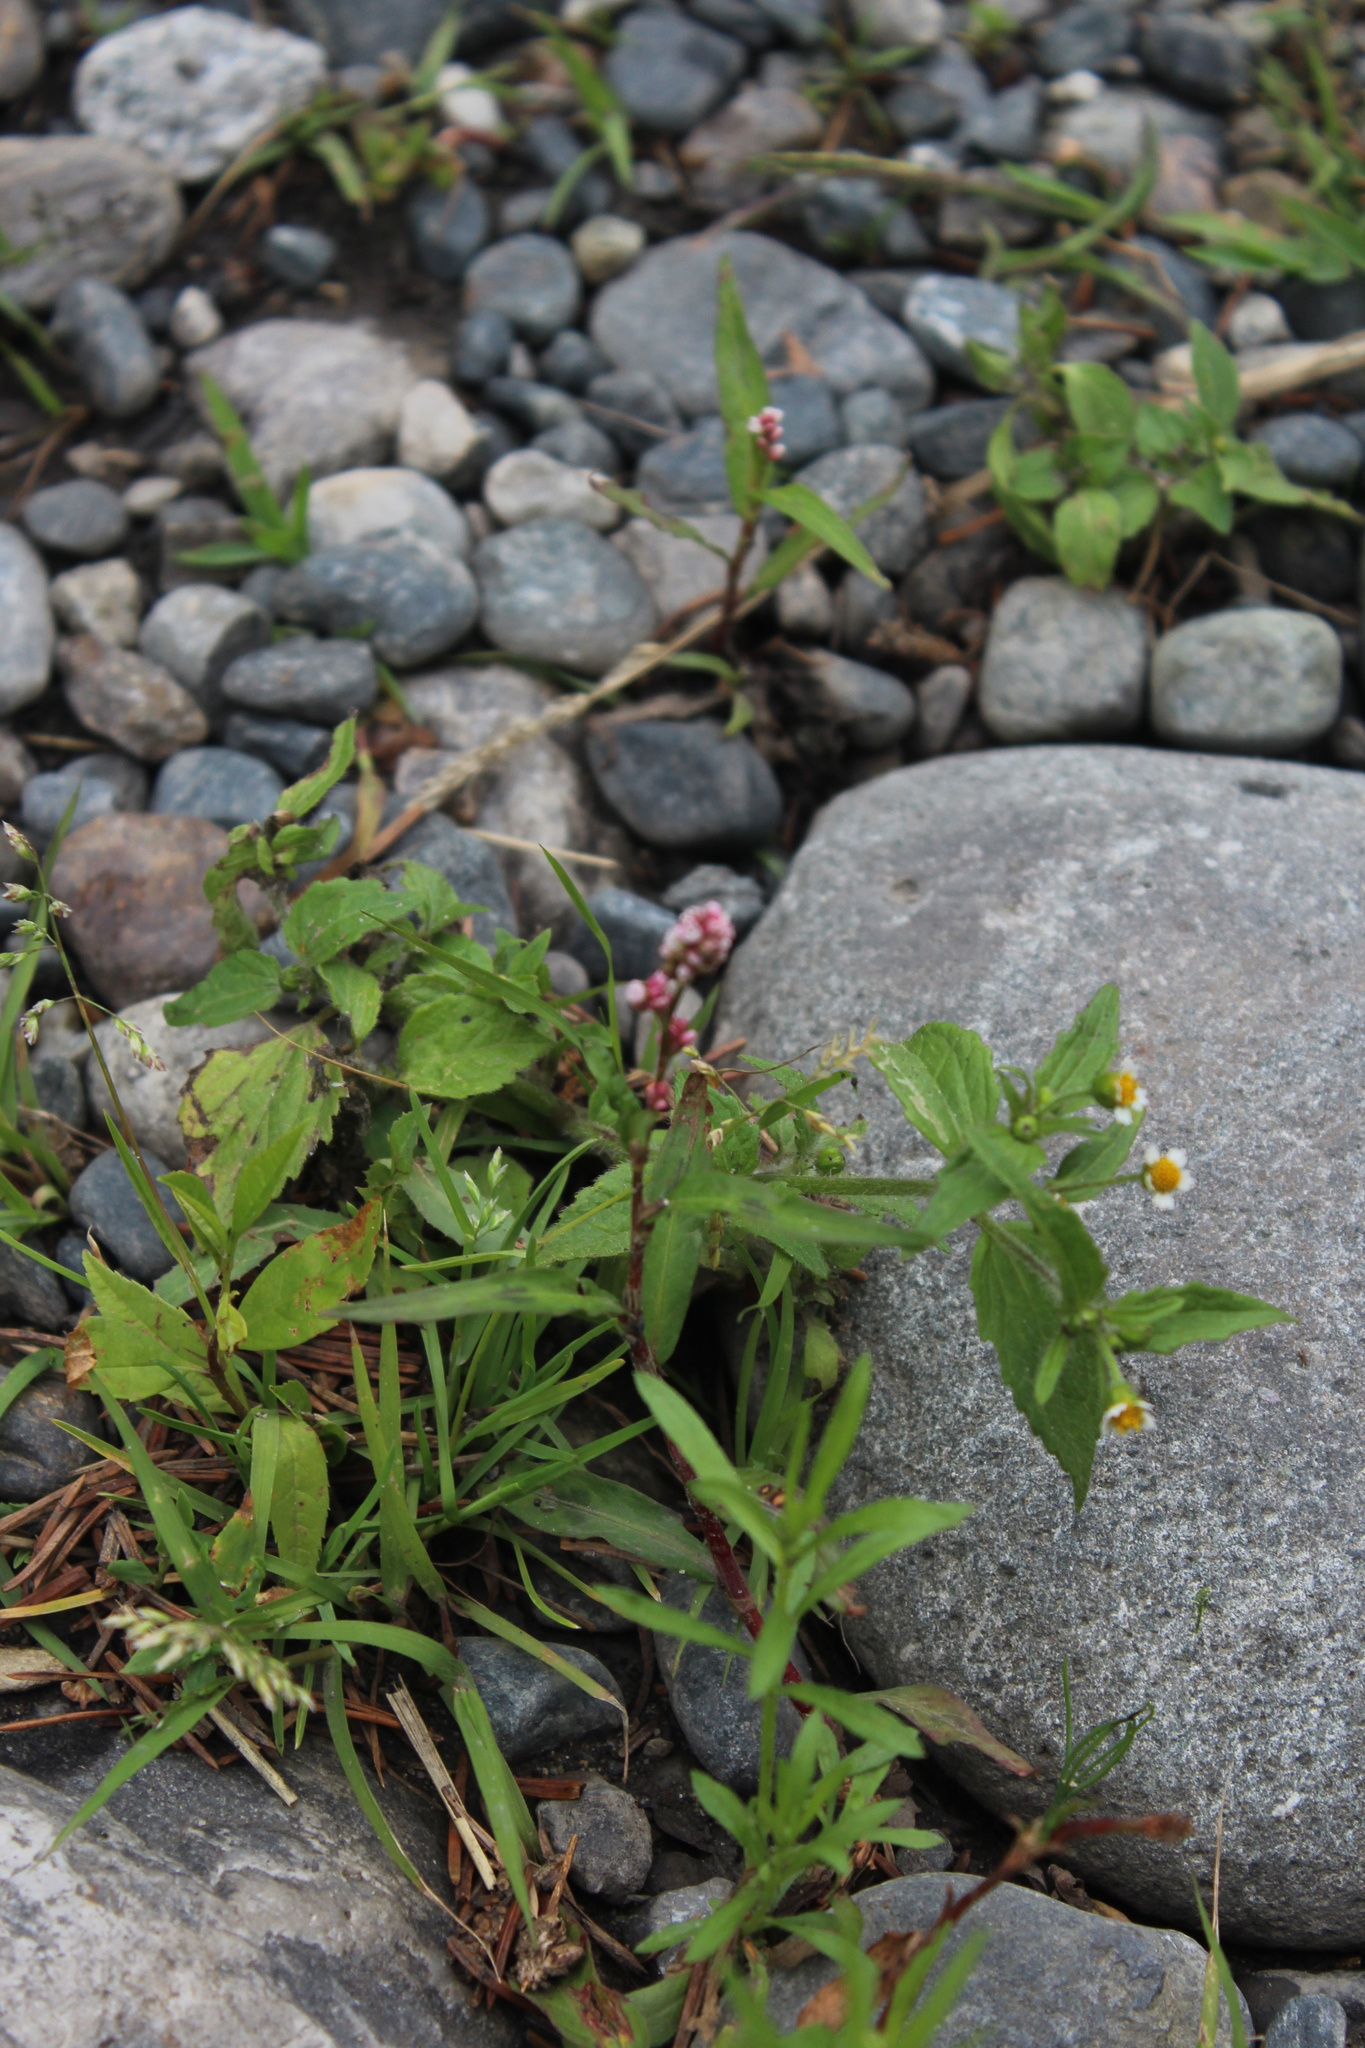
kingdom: Plantae
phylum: Tracheophyta
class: Magnoliopsida
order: Asterales
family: Asteraceae
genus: Galinsoga
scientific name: Galinsoga quadriradiata
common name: Shaggy soldier
